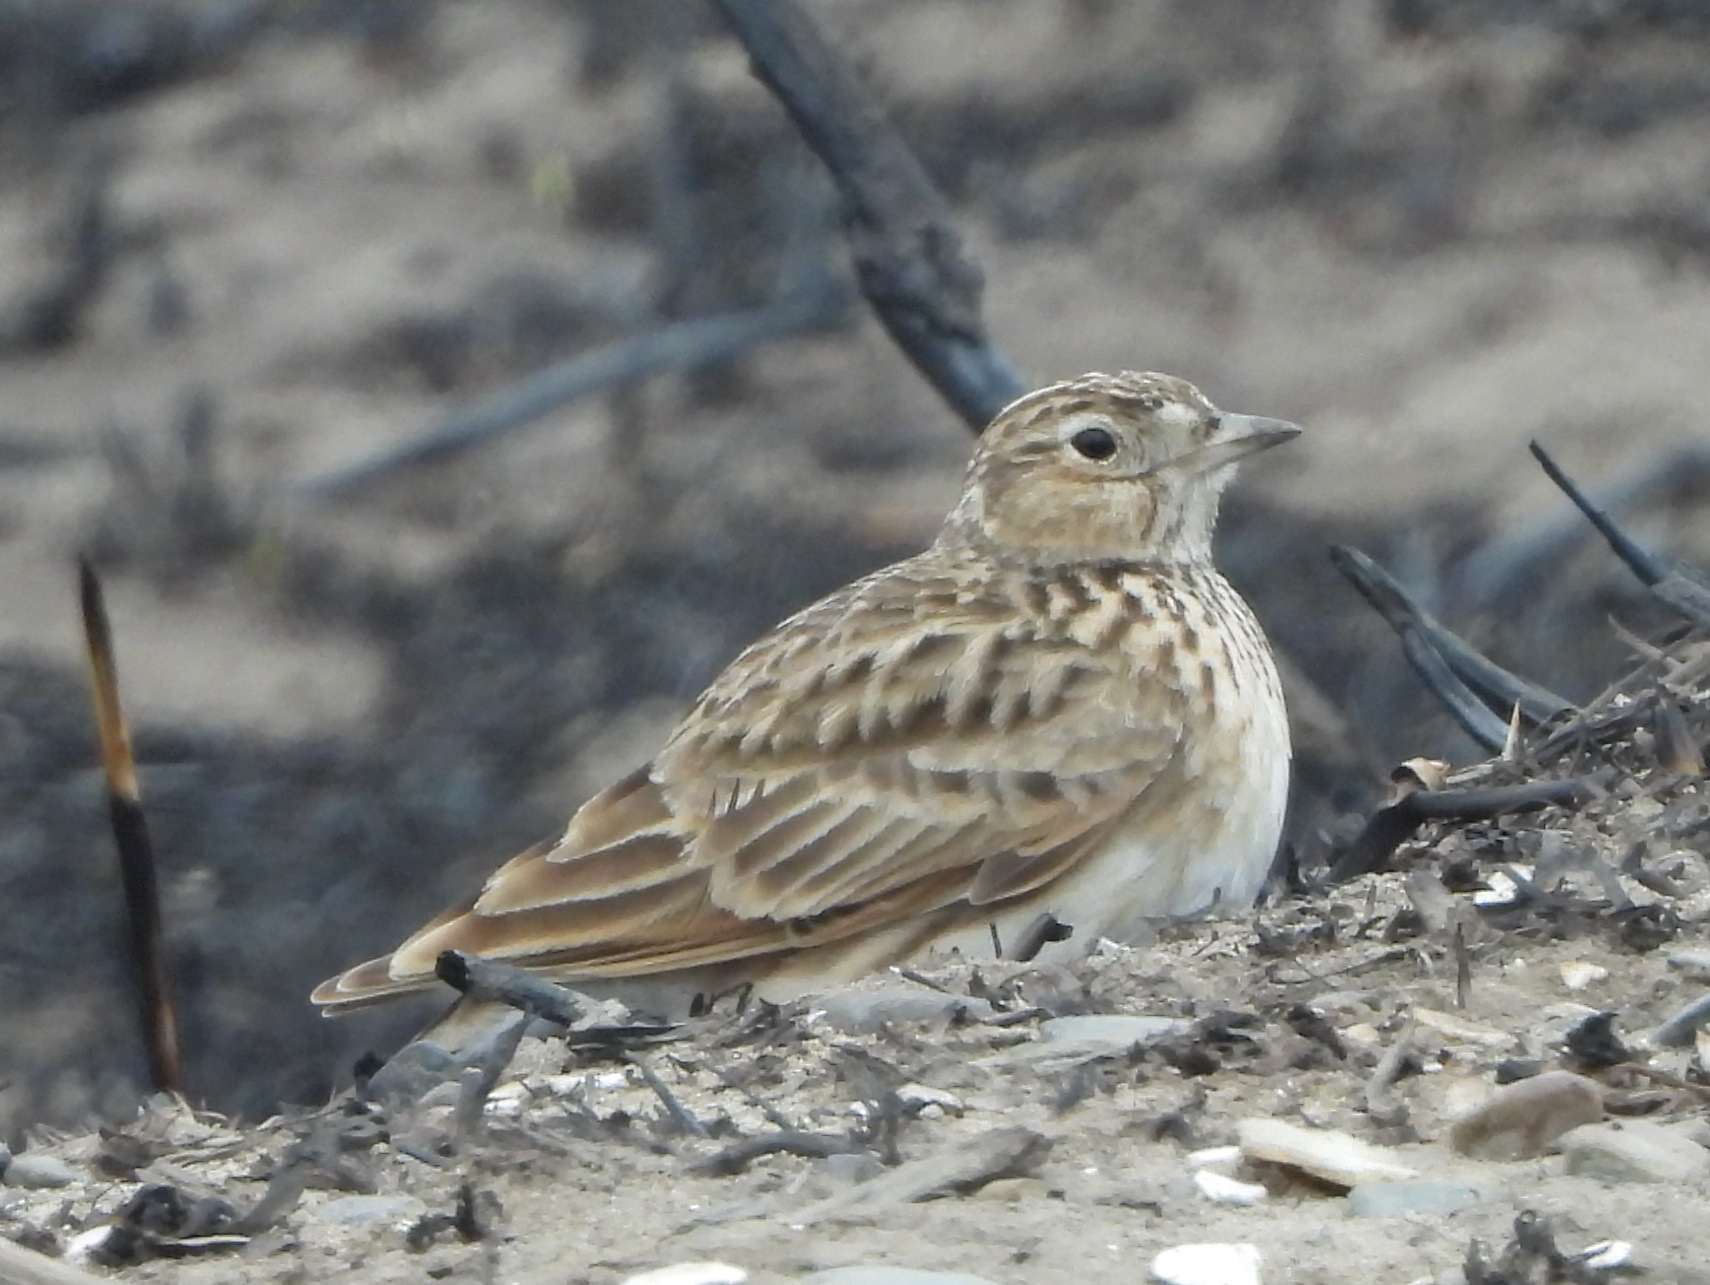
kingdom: Animalia
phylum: Chordata
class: Aves
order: Passeriformes
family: Alaudidae
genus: Alauda
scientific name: Alauda arvensis
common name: Eurasian skylark
